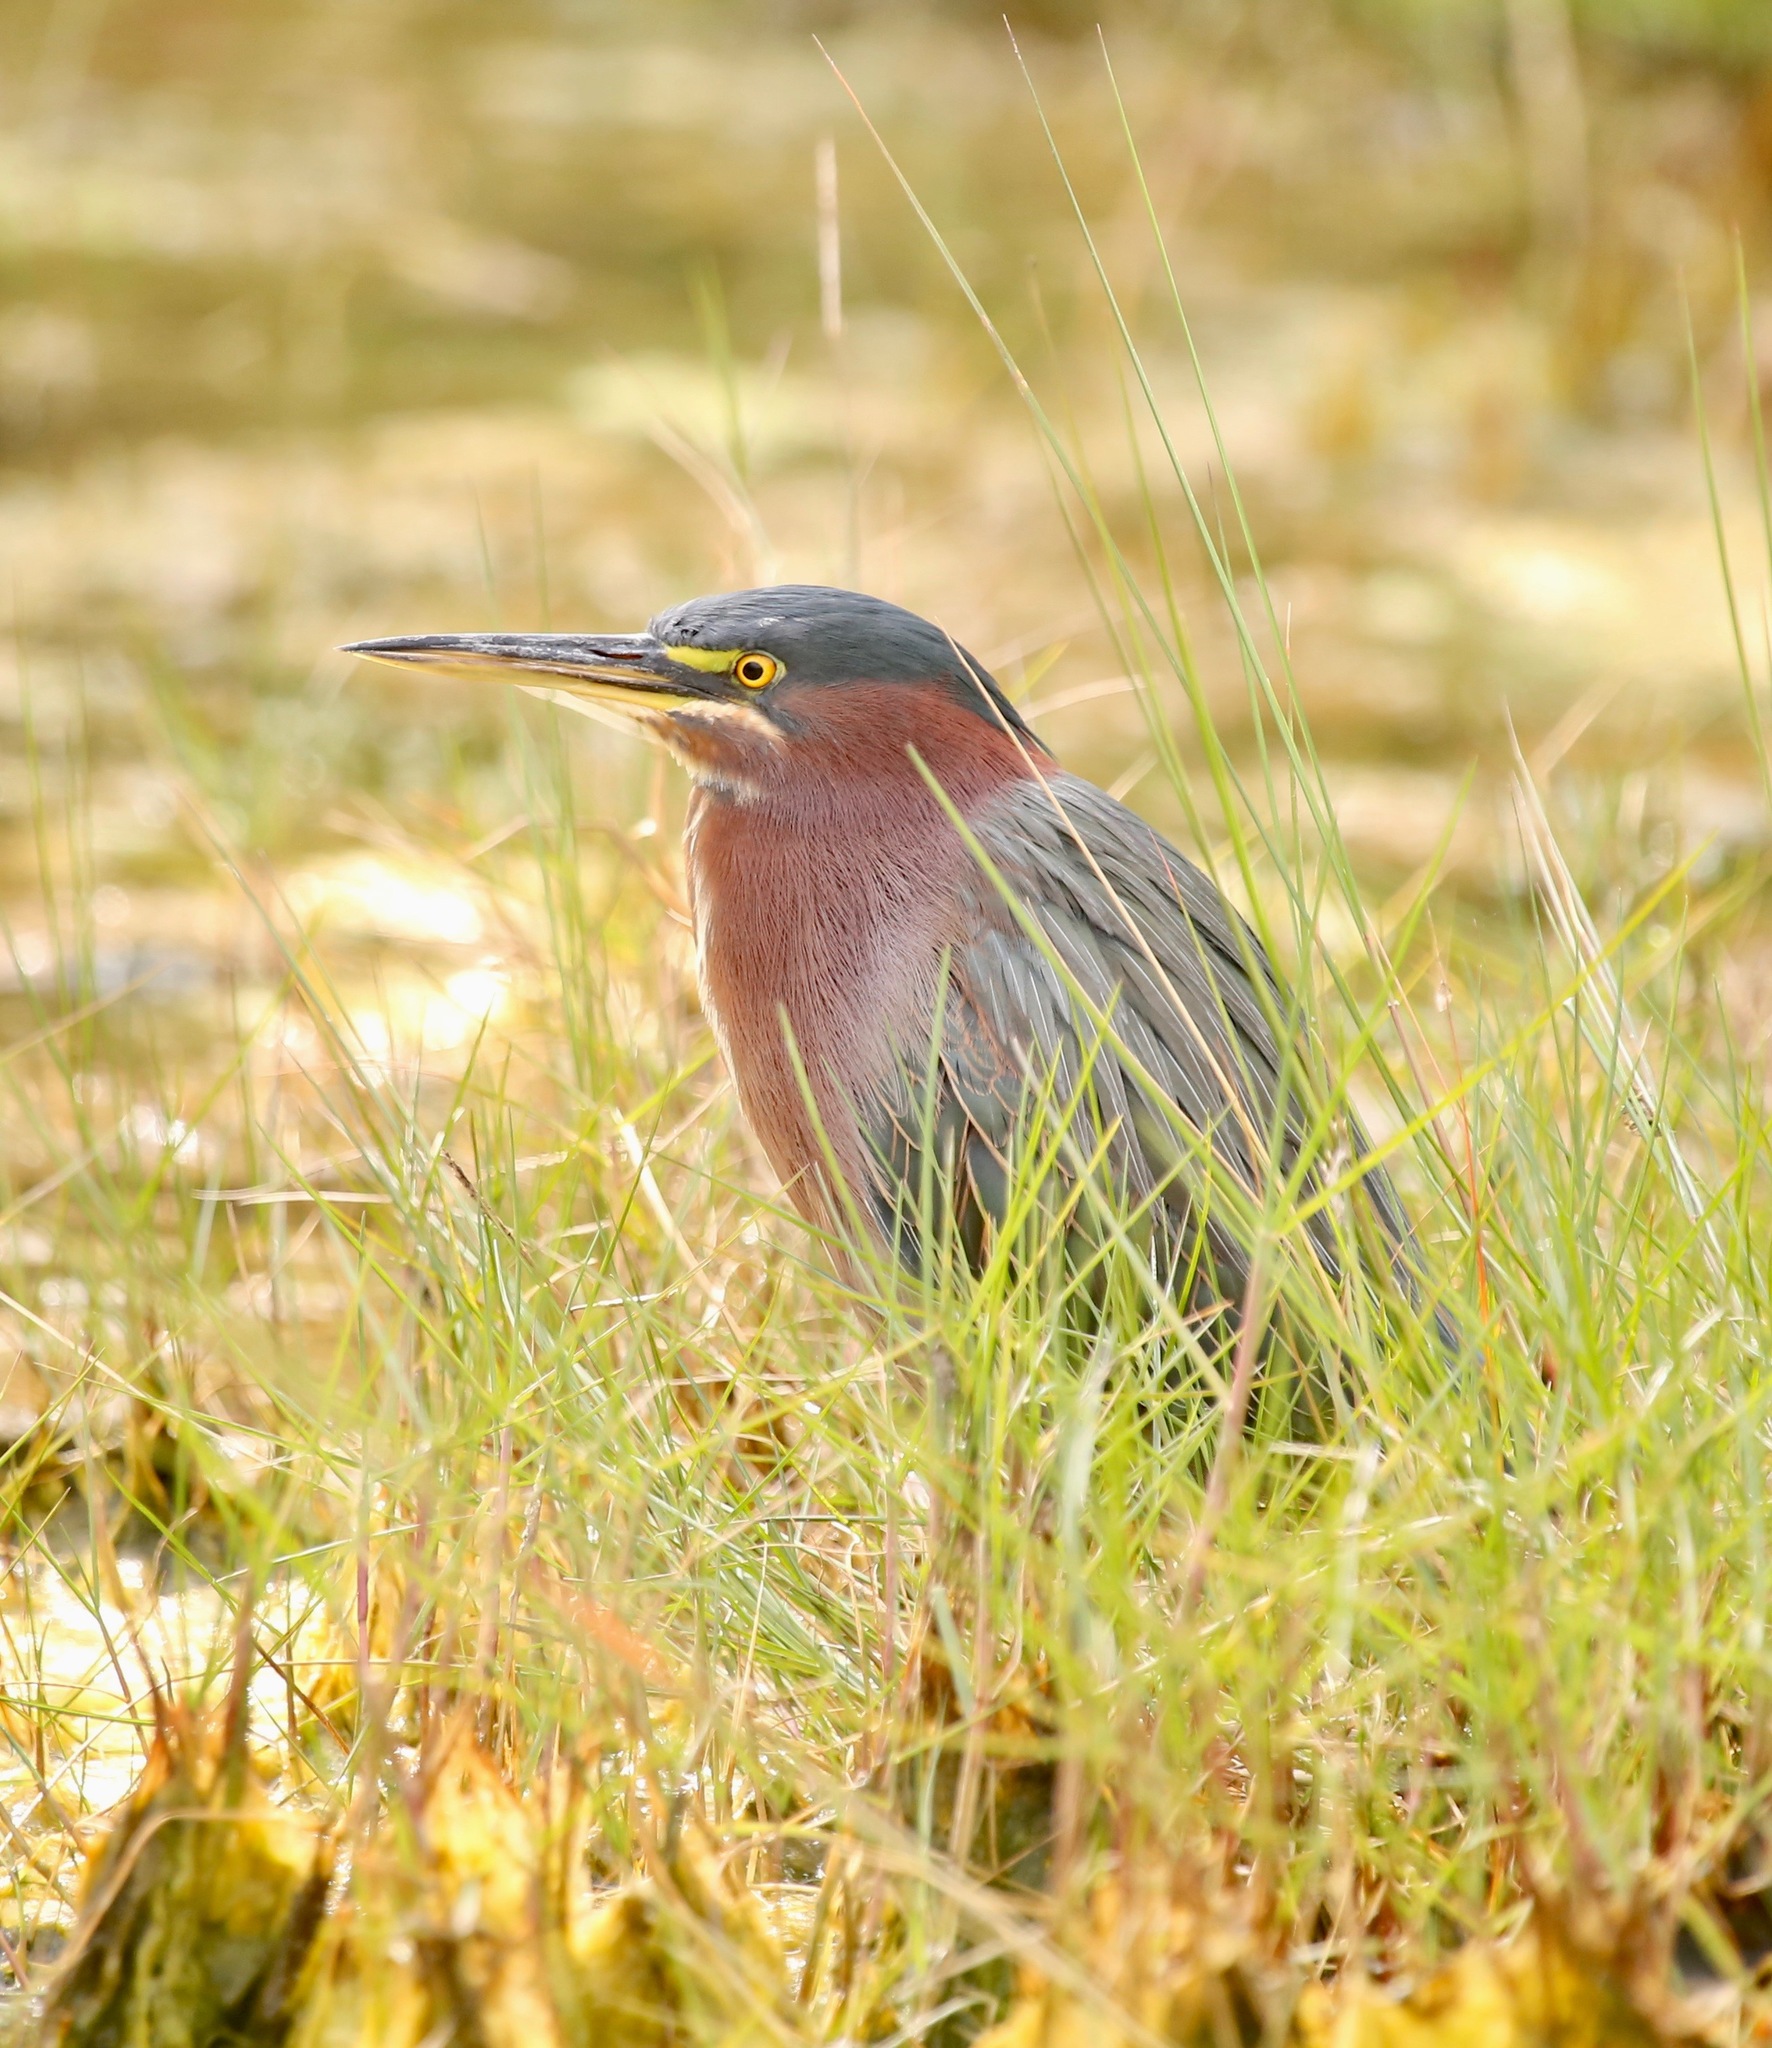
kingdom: Animalia
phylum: Chordata
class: Aves
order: Pelecaniformes
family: Ardeidae
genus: Butorides
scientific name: Butorides virescens
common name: Green heron
